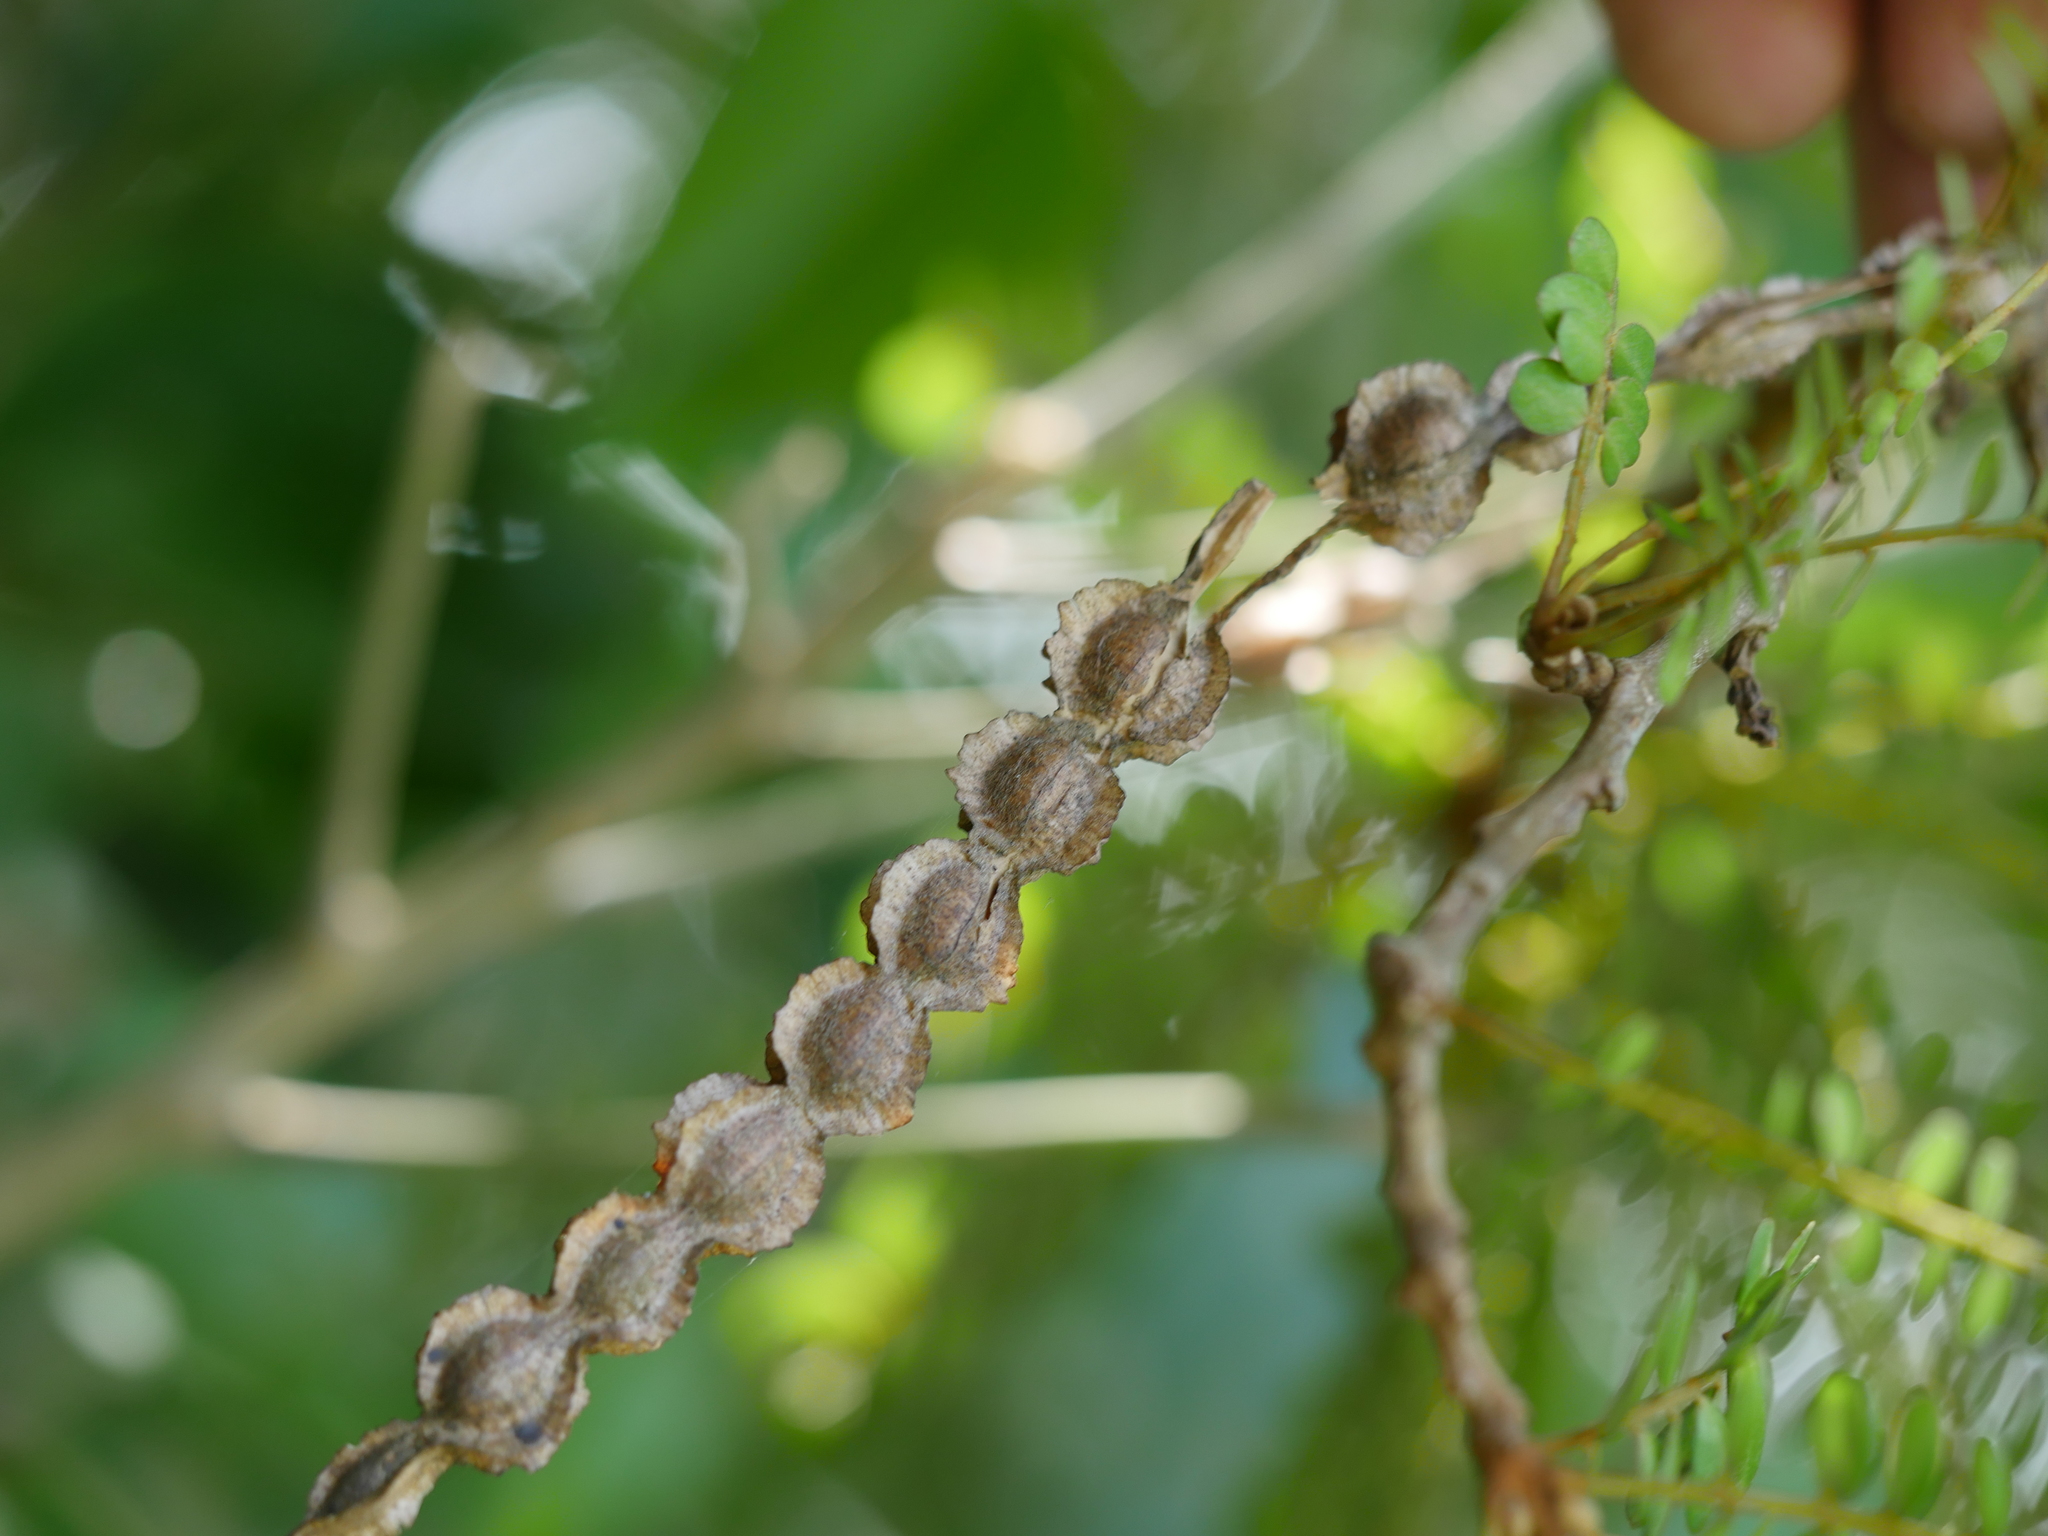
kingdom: Plantae
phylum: Tracheophyta
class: Magnoliopsida
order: Fabales
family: Fabaceae
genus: Sophora
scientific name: Sophora chathamica
